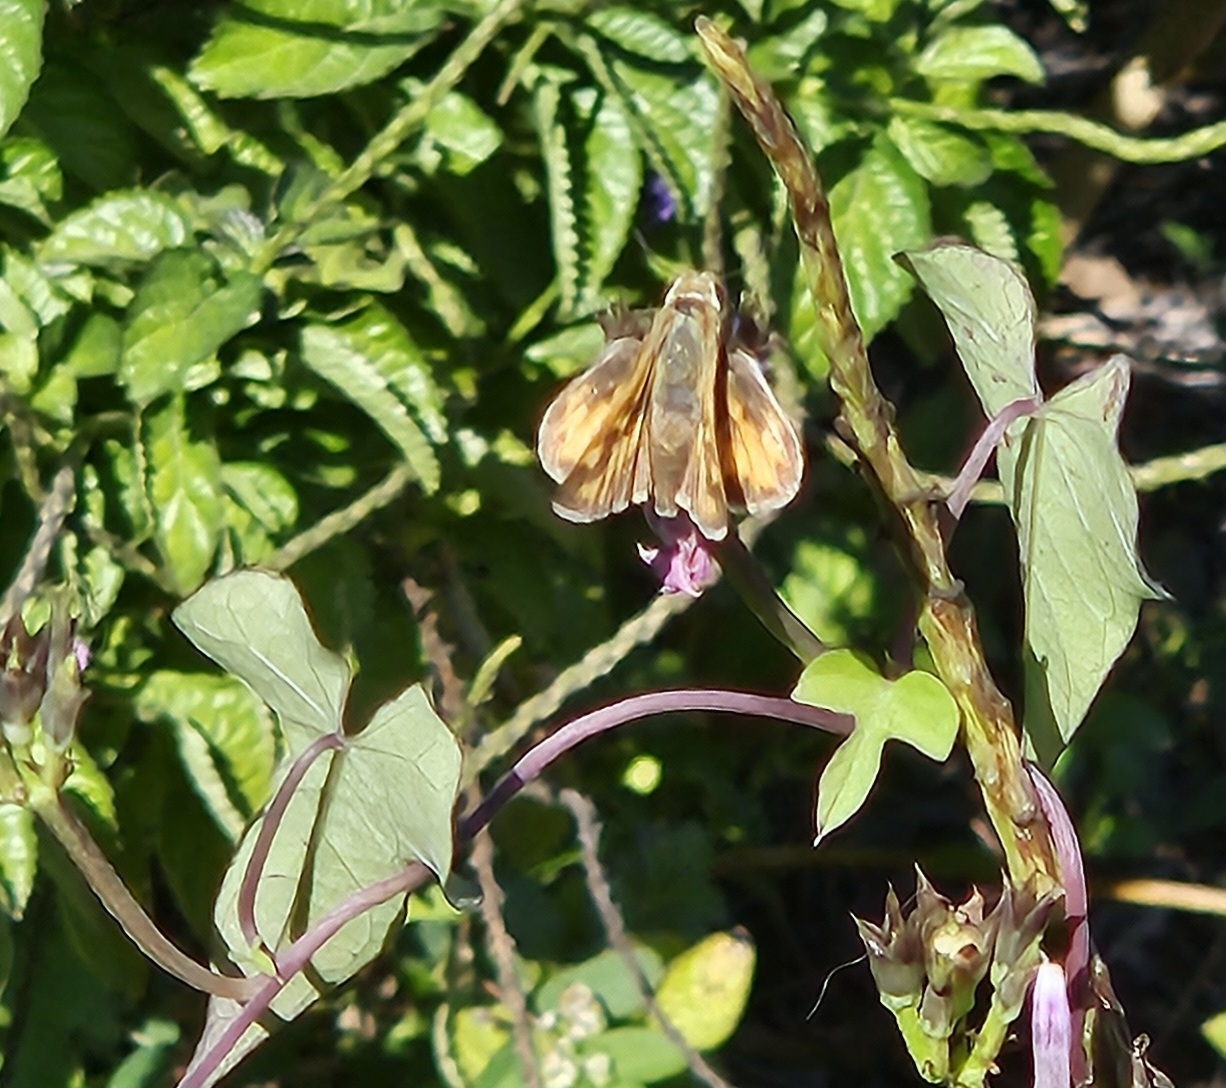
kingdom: Animalia
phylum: Arthropoda
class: Insecta
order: Lepidoptera
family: Hesperiidae
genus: Hylephila
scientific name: Hylephila phyleus
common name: Fiery skipper
